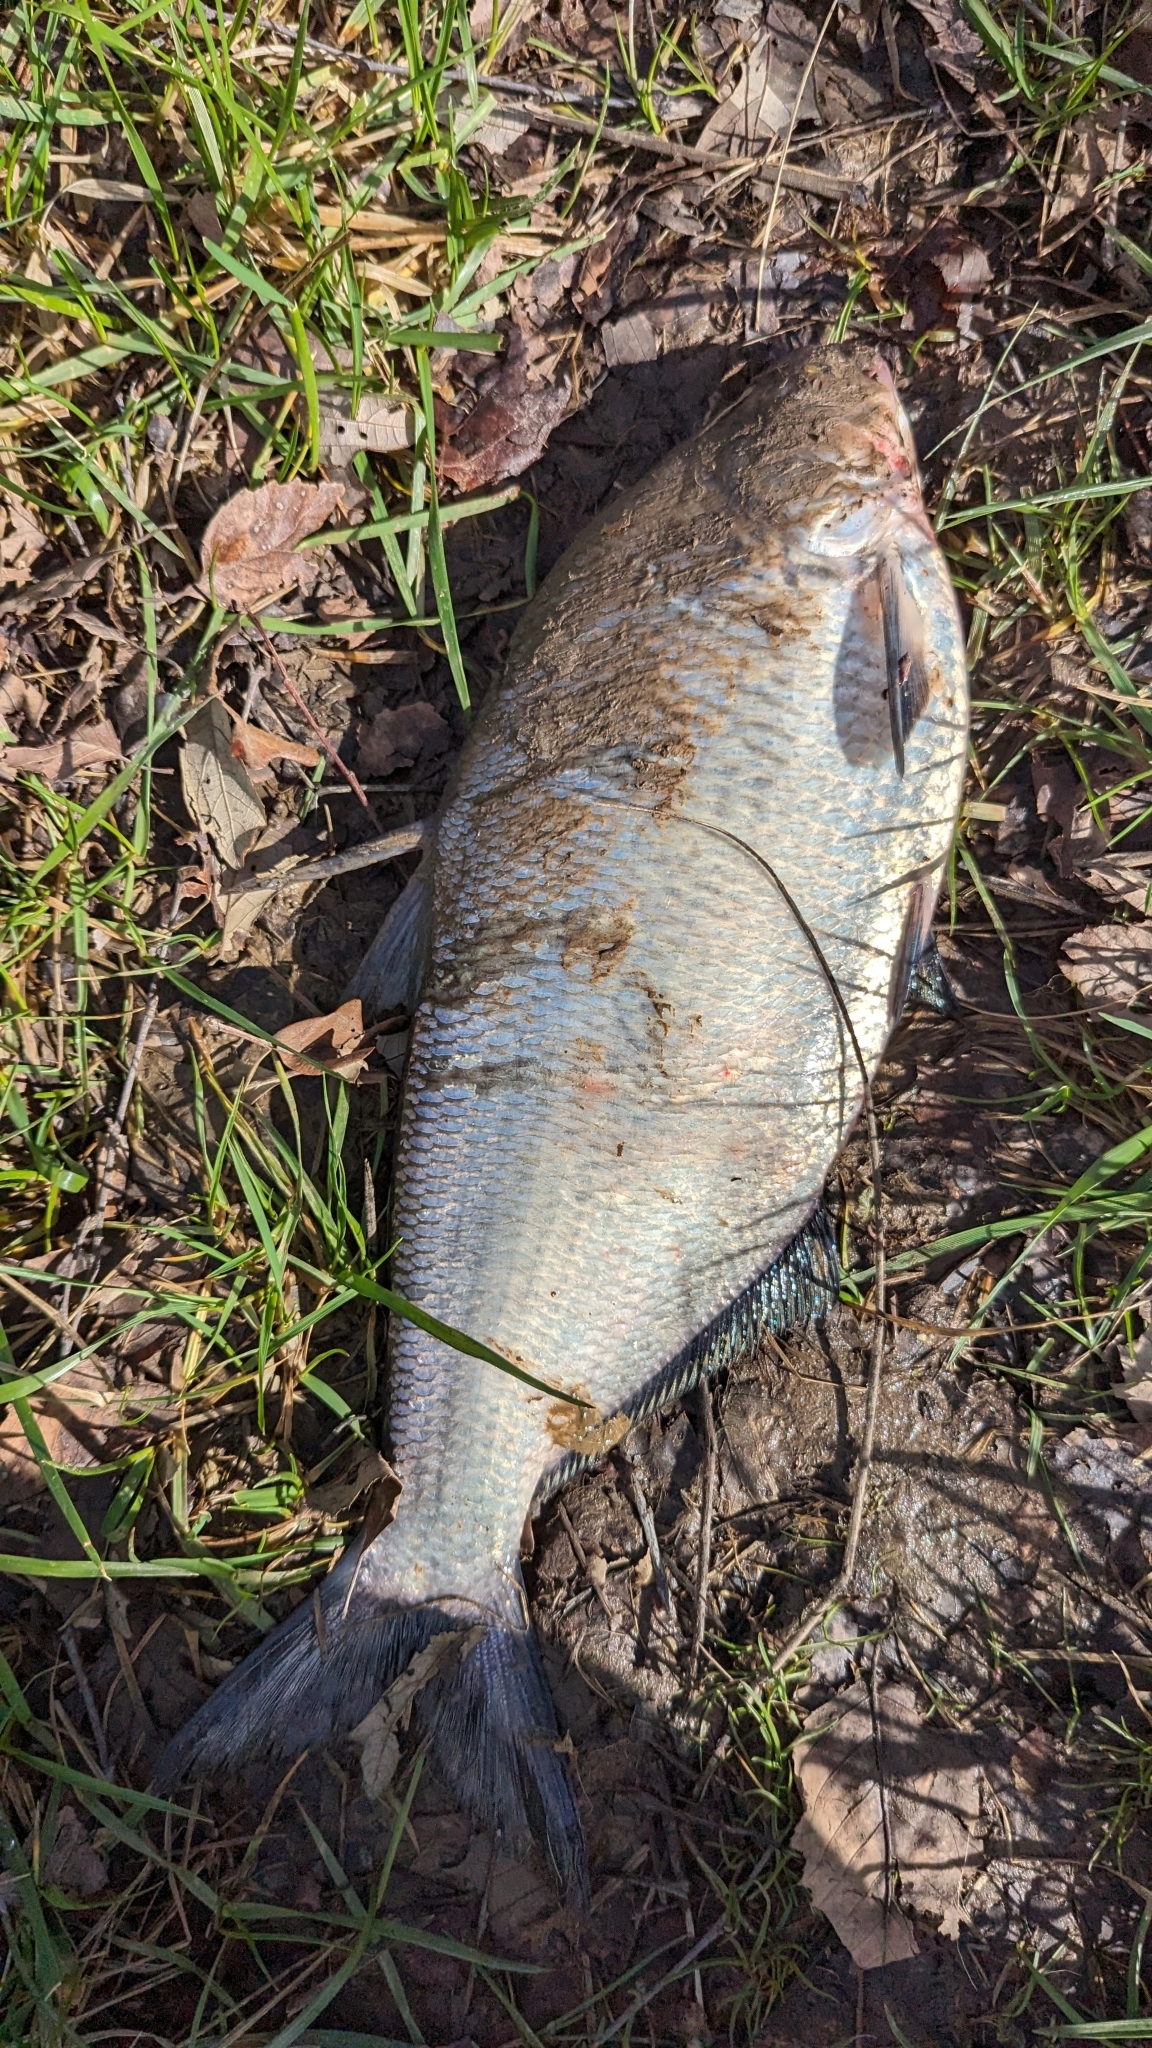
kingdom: Animalia
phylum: Chordata
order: Clupeiformes
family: Clupeidae
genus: Dorosoma
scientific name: Dorosoma cepedianum
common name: Gizzard shad
